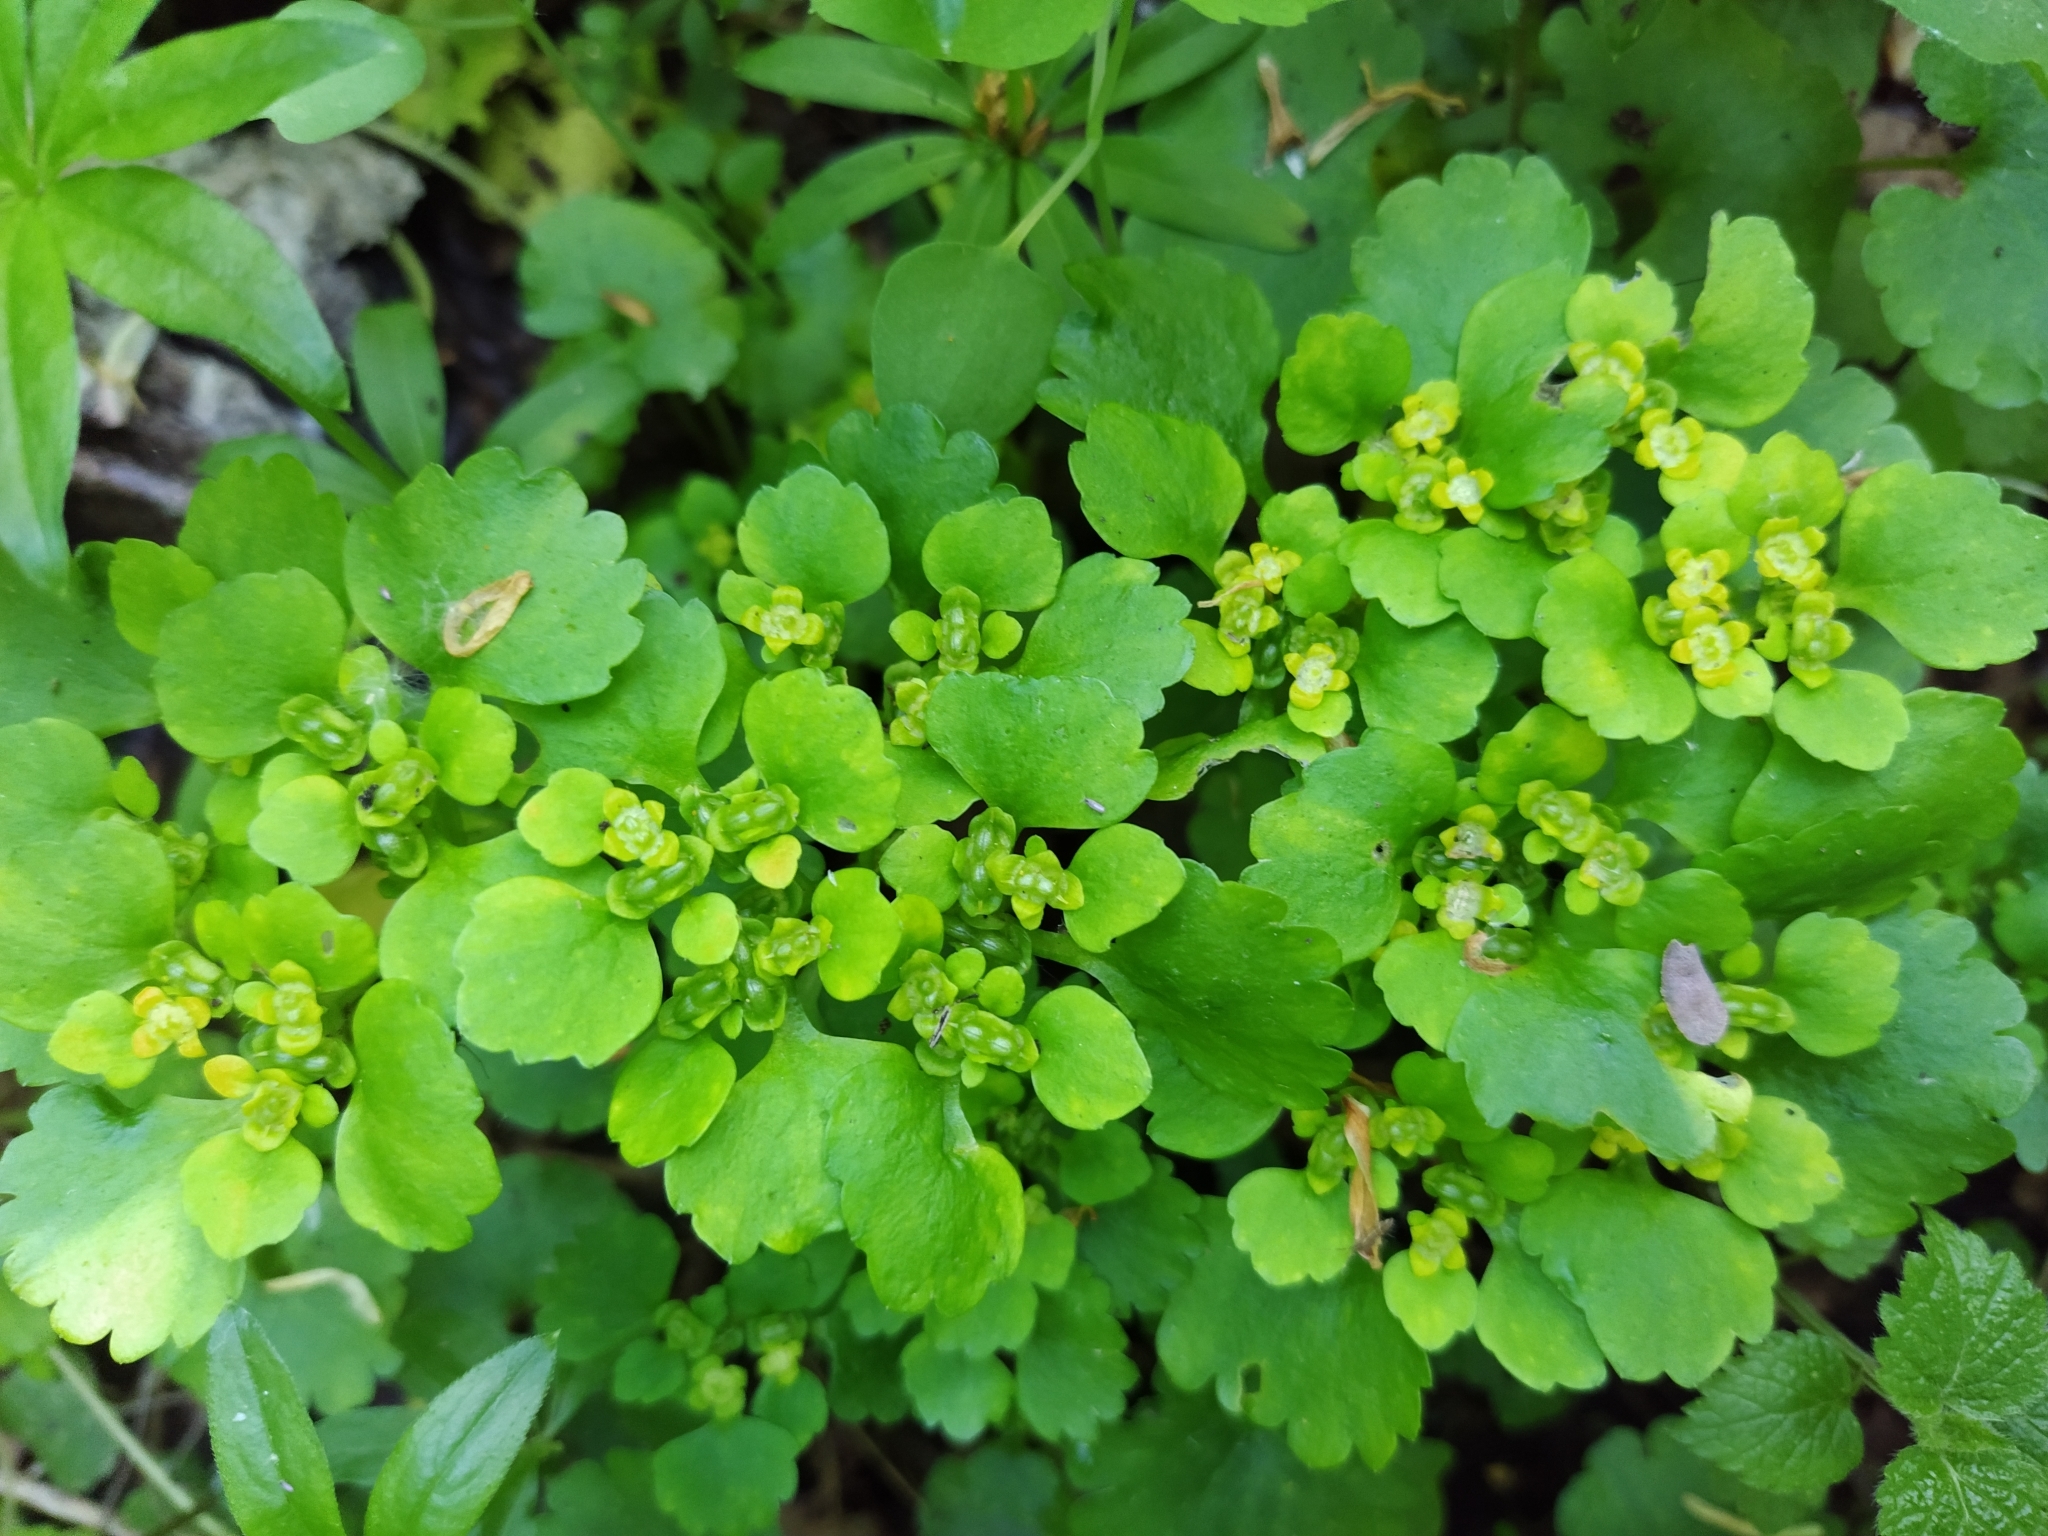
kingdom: Plantae
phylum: Tracheophyta
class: Magnoliopsida
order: Saxifragales
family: Saxifragaceae
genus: Chrysosplenium
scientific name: Chrysosplenium alternifolium
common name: Alternate-leaved golden-saxifrage
